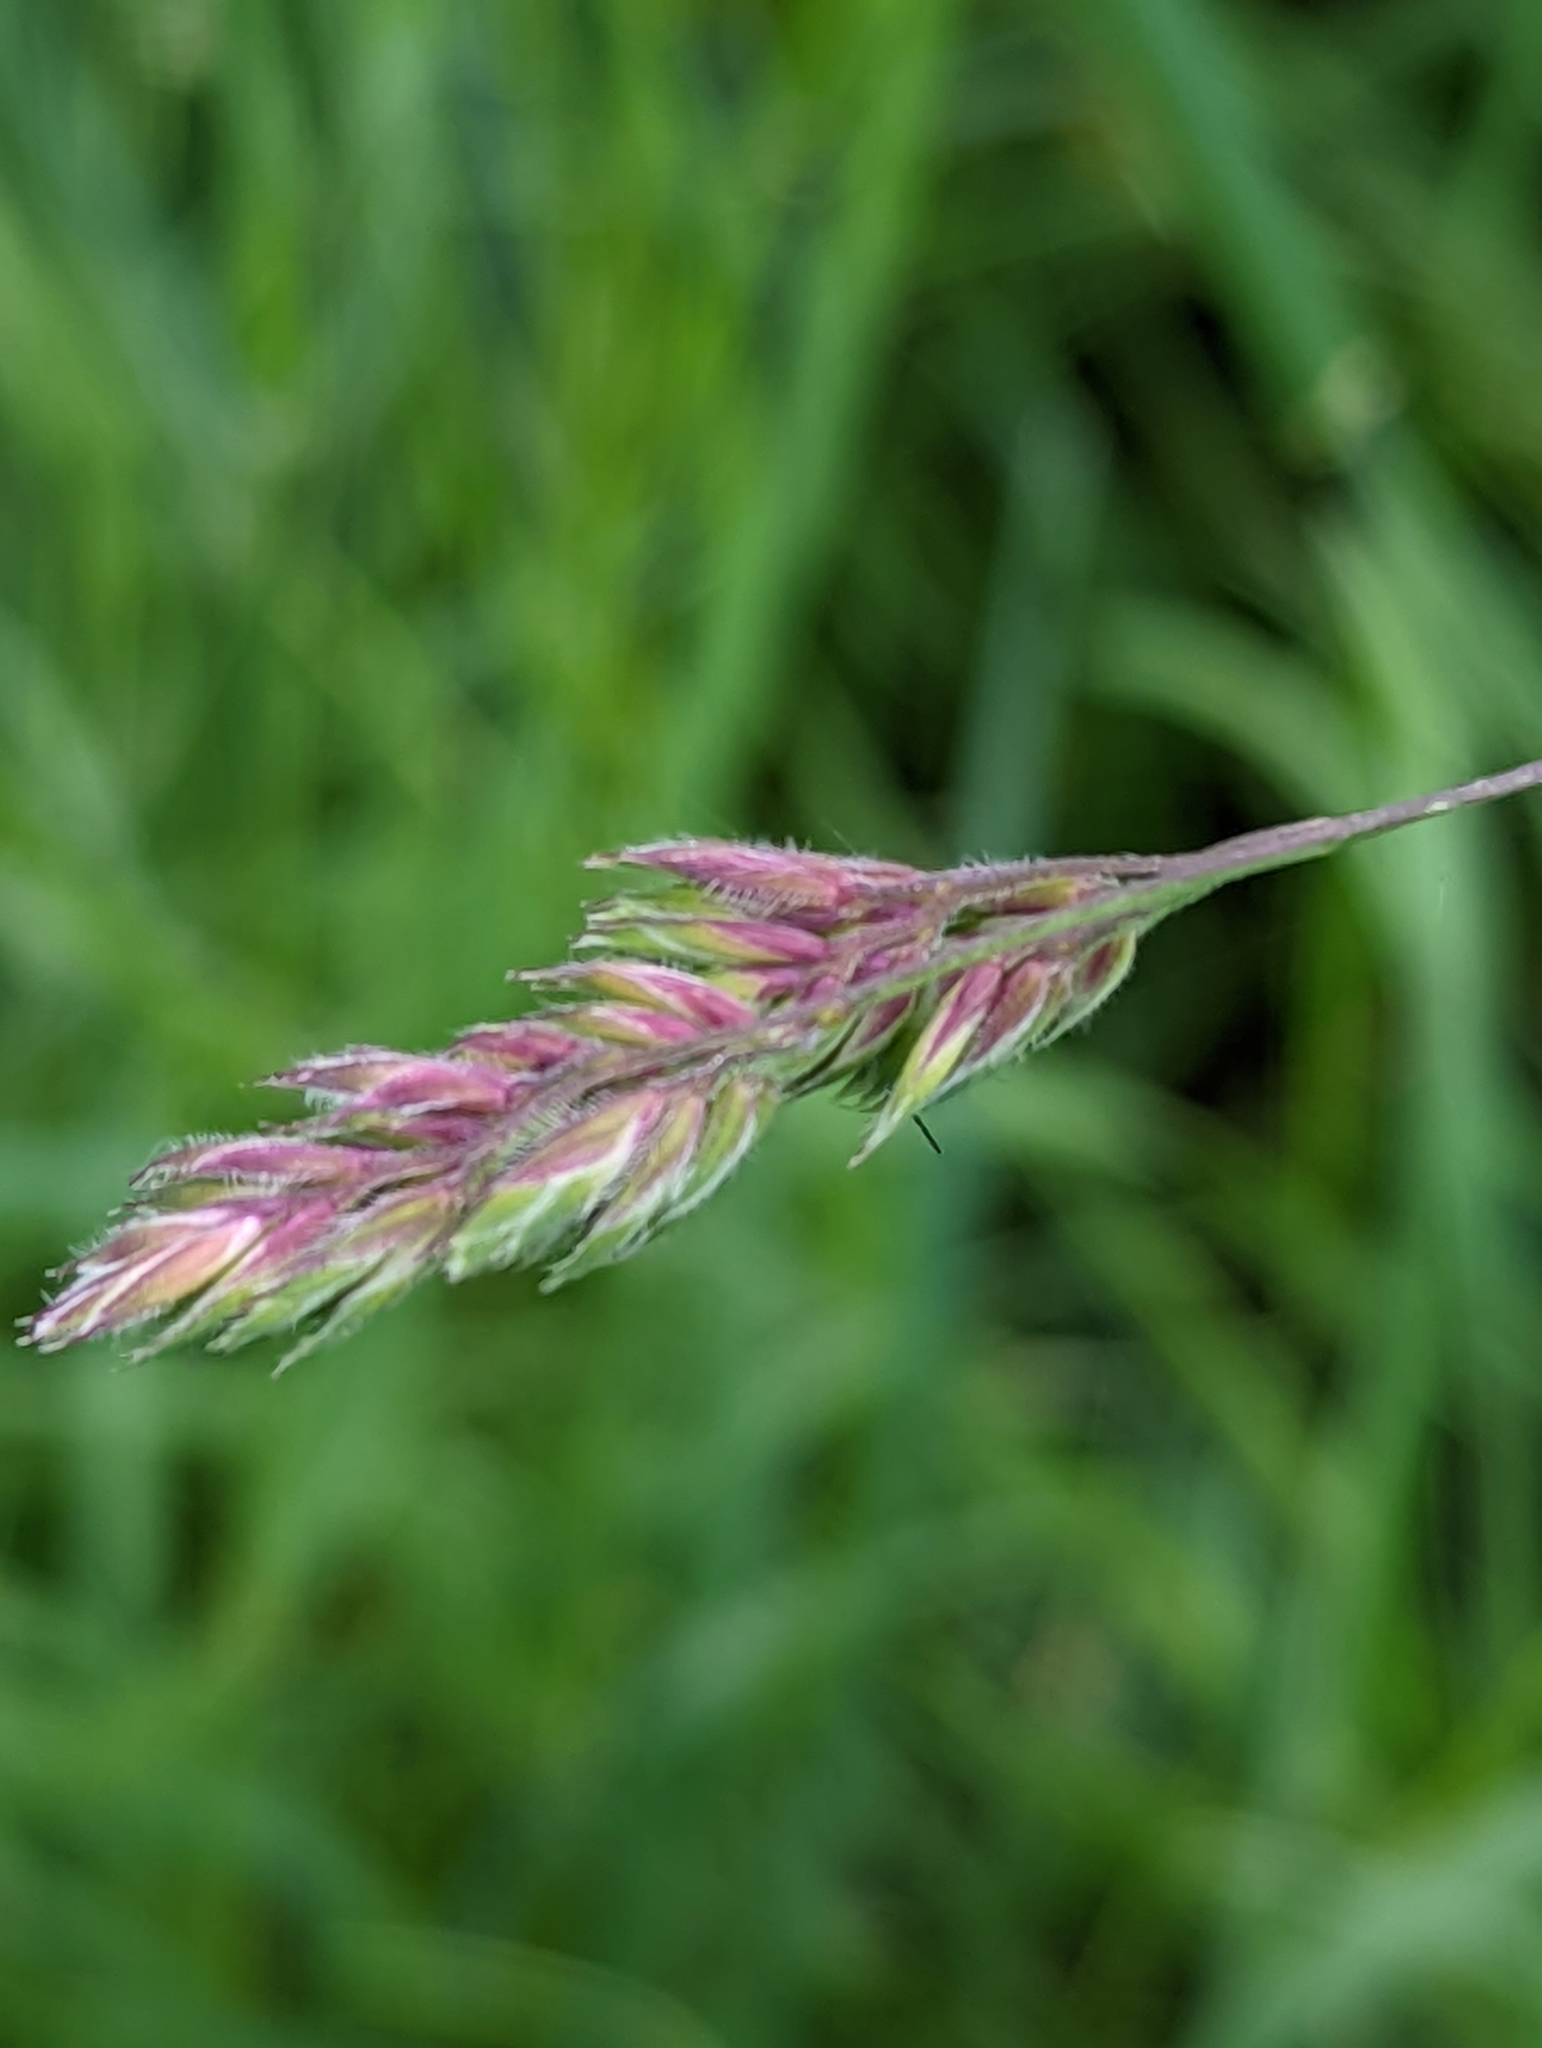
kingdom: Plantae
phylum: Tracheophyta
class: Liliopsida
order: Poales
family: Poaceae
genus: Dactylis
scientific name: Dactylis glomerata
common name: Orchardgrass
